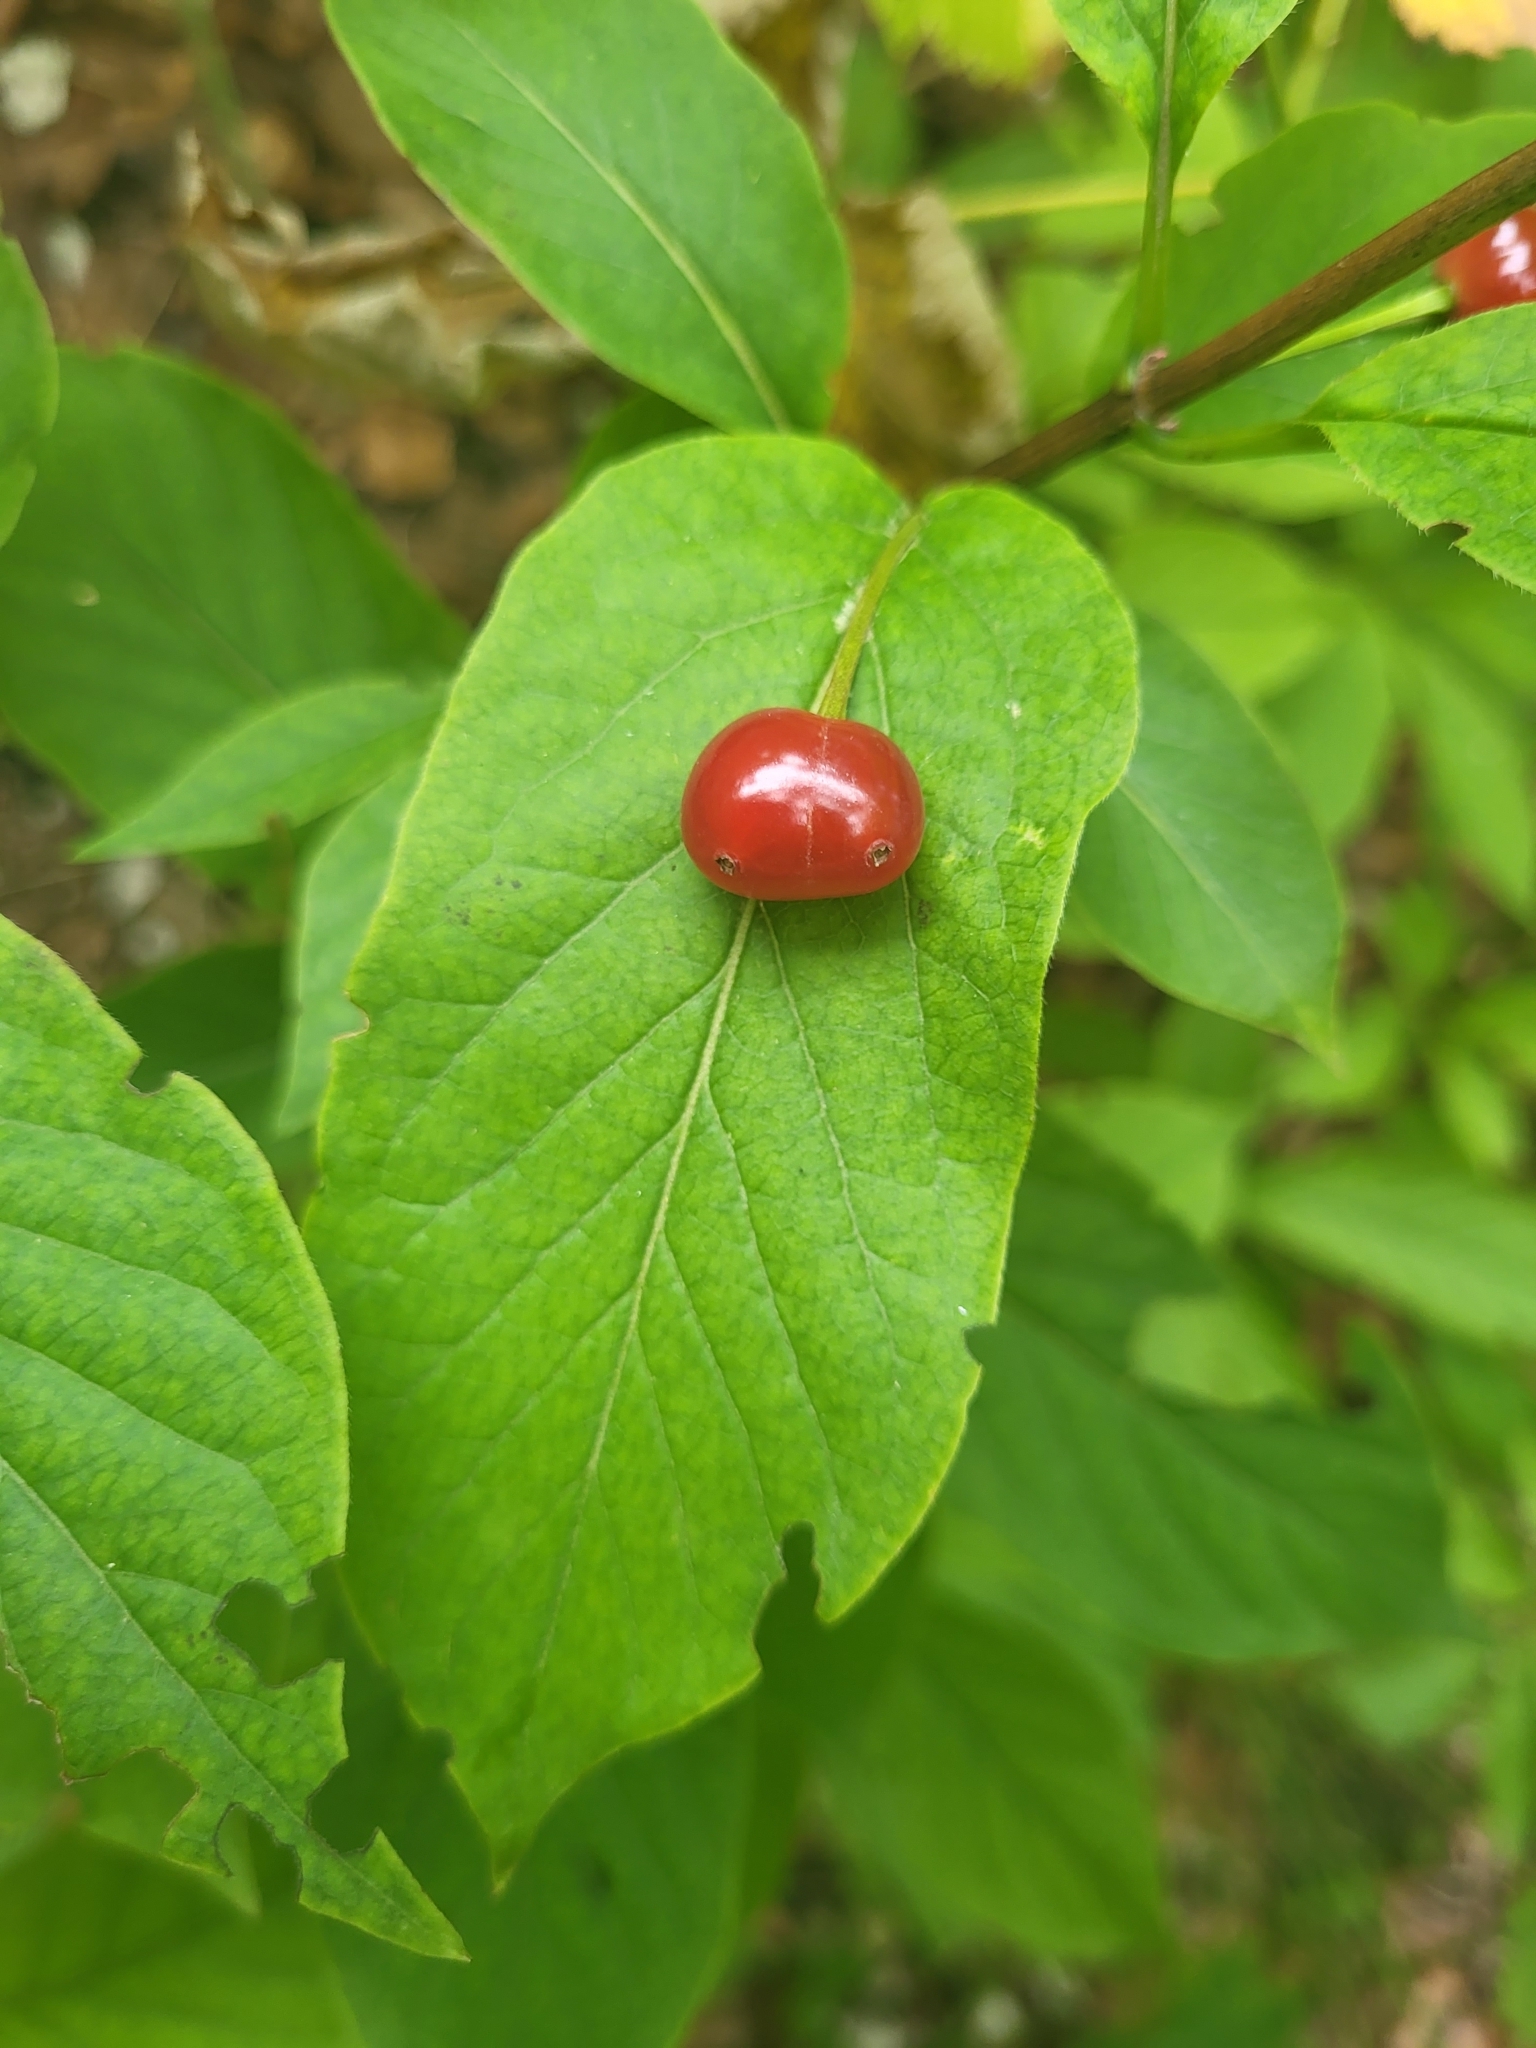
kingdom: Plantae
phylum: Tracheophyta
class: Magnoliopsida
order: Dipsacales
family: Caprifoliaceae
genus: Lonicera
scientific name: Lonicera alpigena
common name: Alpine honeysuckle
